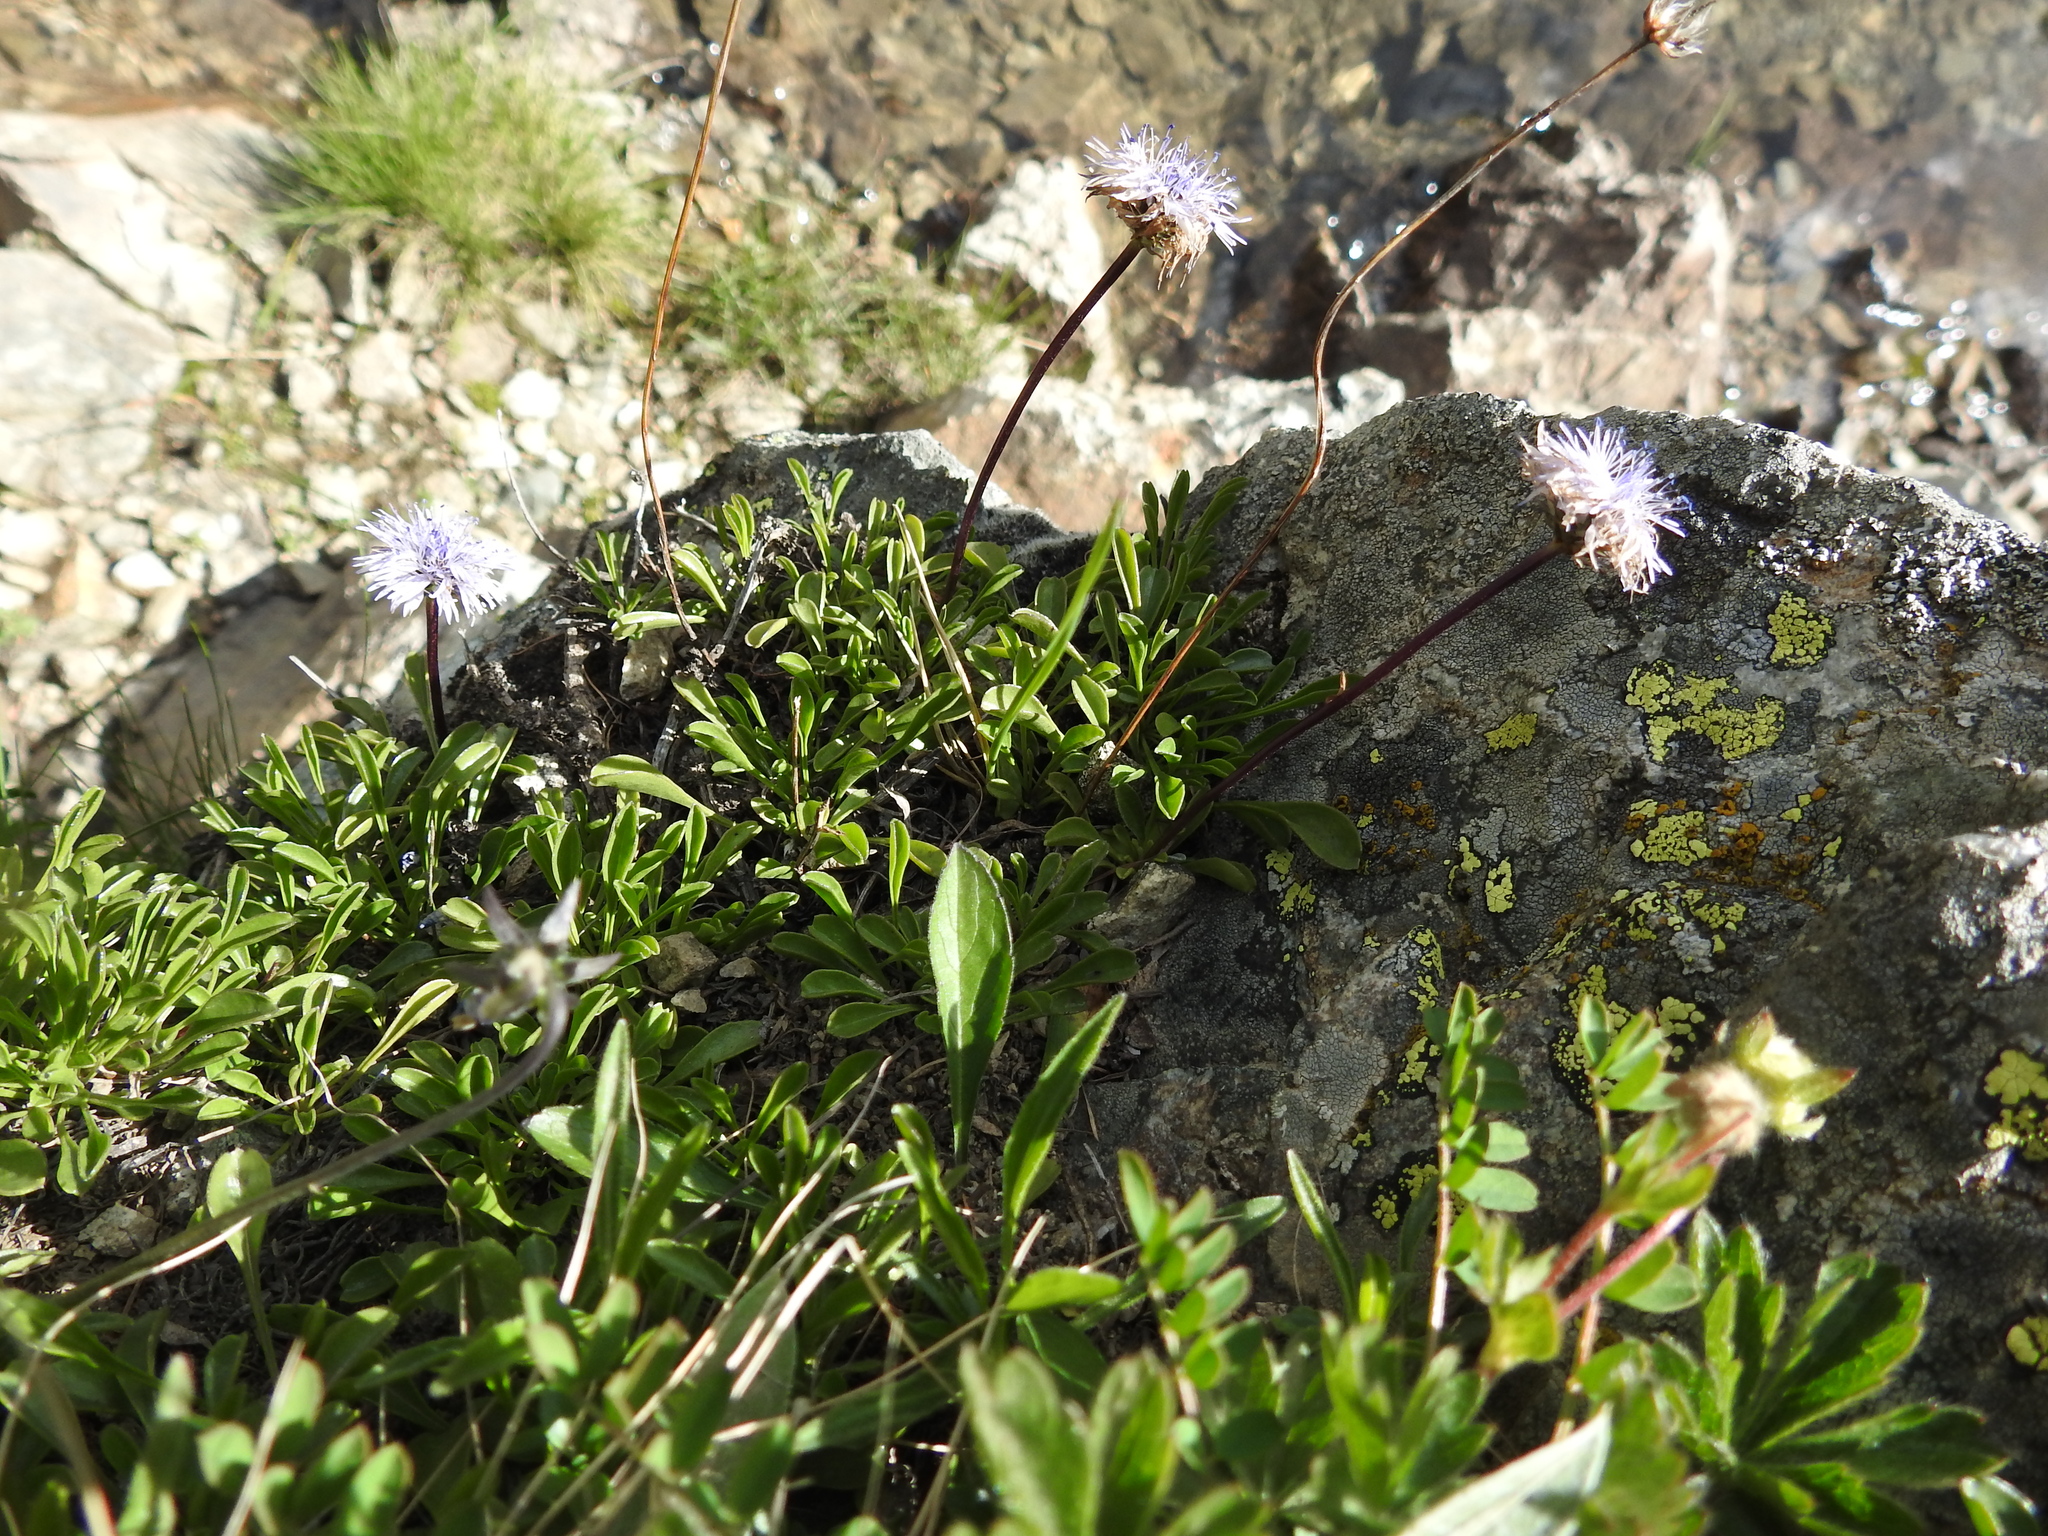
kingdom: Plantae
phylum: Tracheophyta
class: Magnoliopsida
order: Lamiales
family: Plantaginaceae
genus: Globularia
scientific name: Globularia cordifolia
